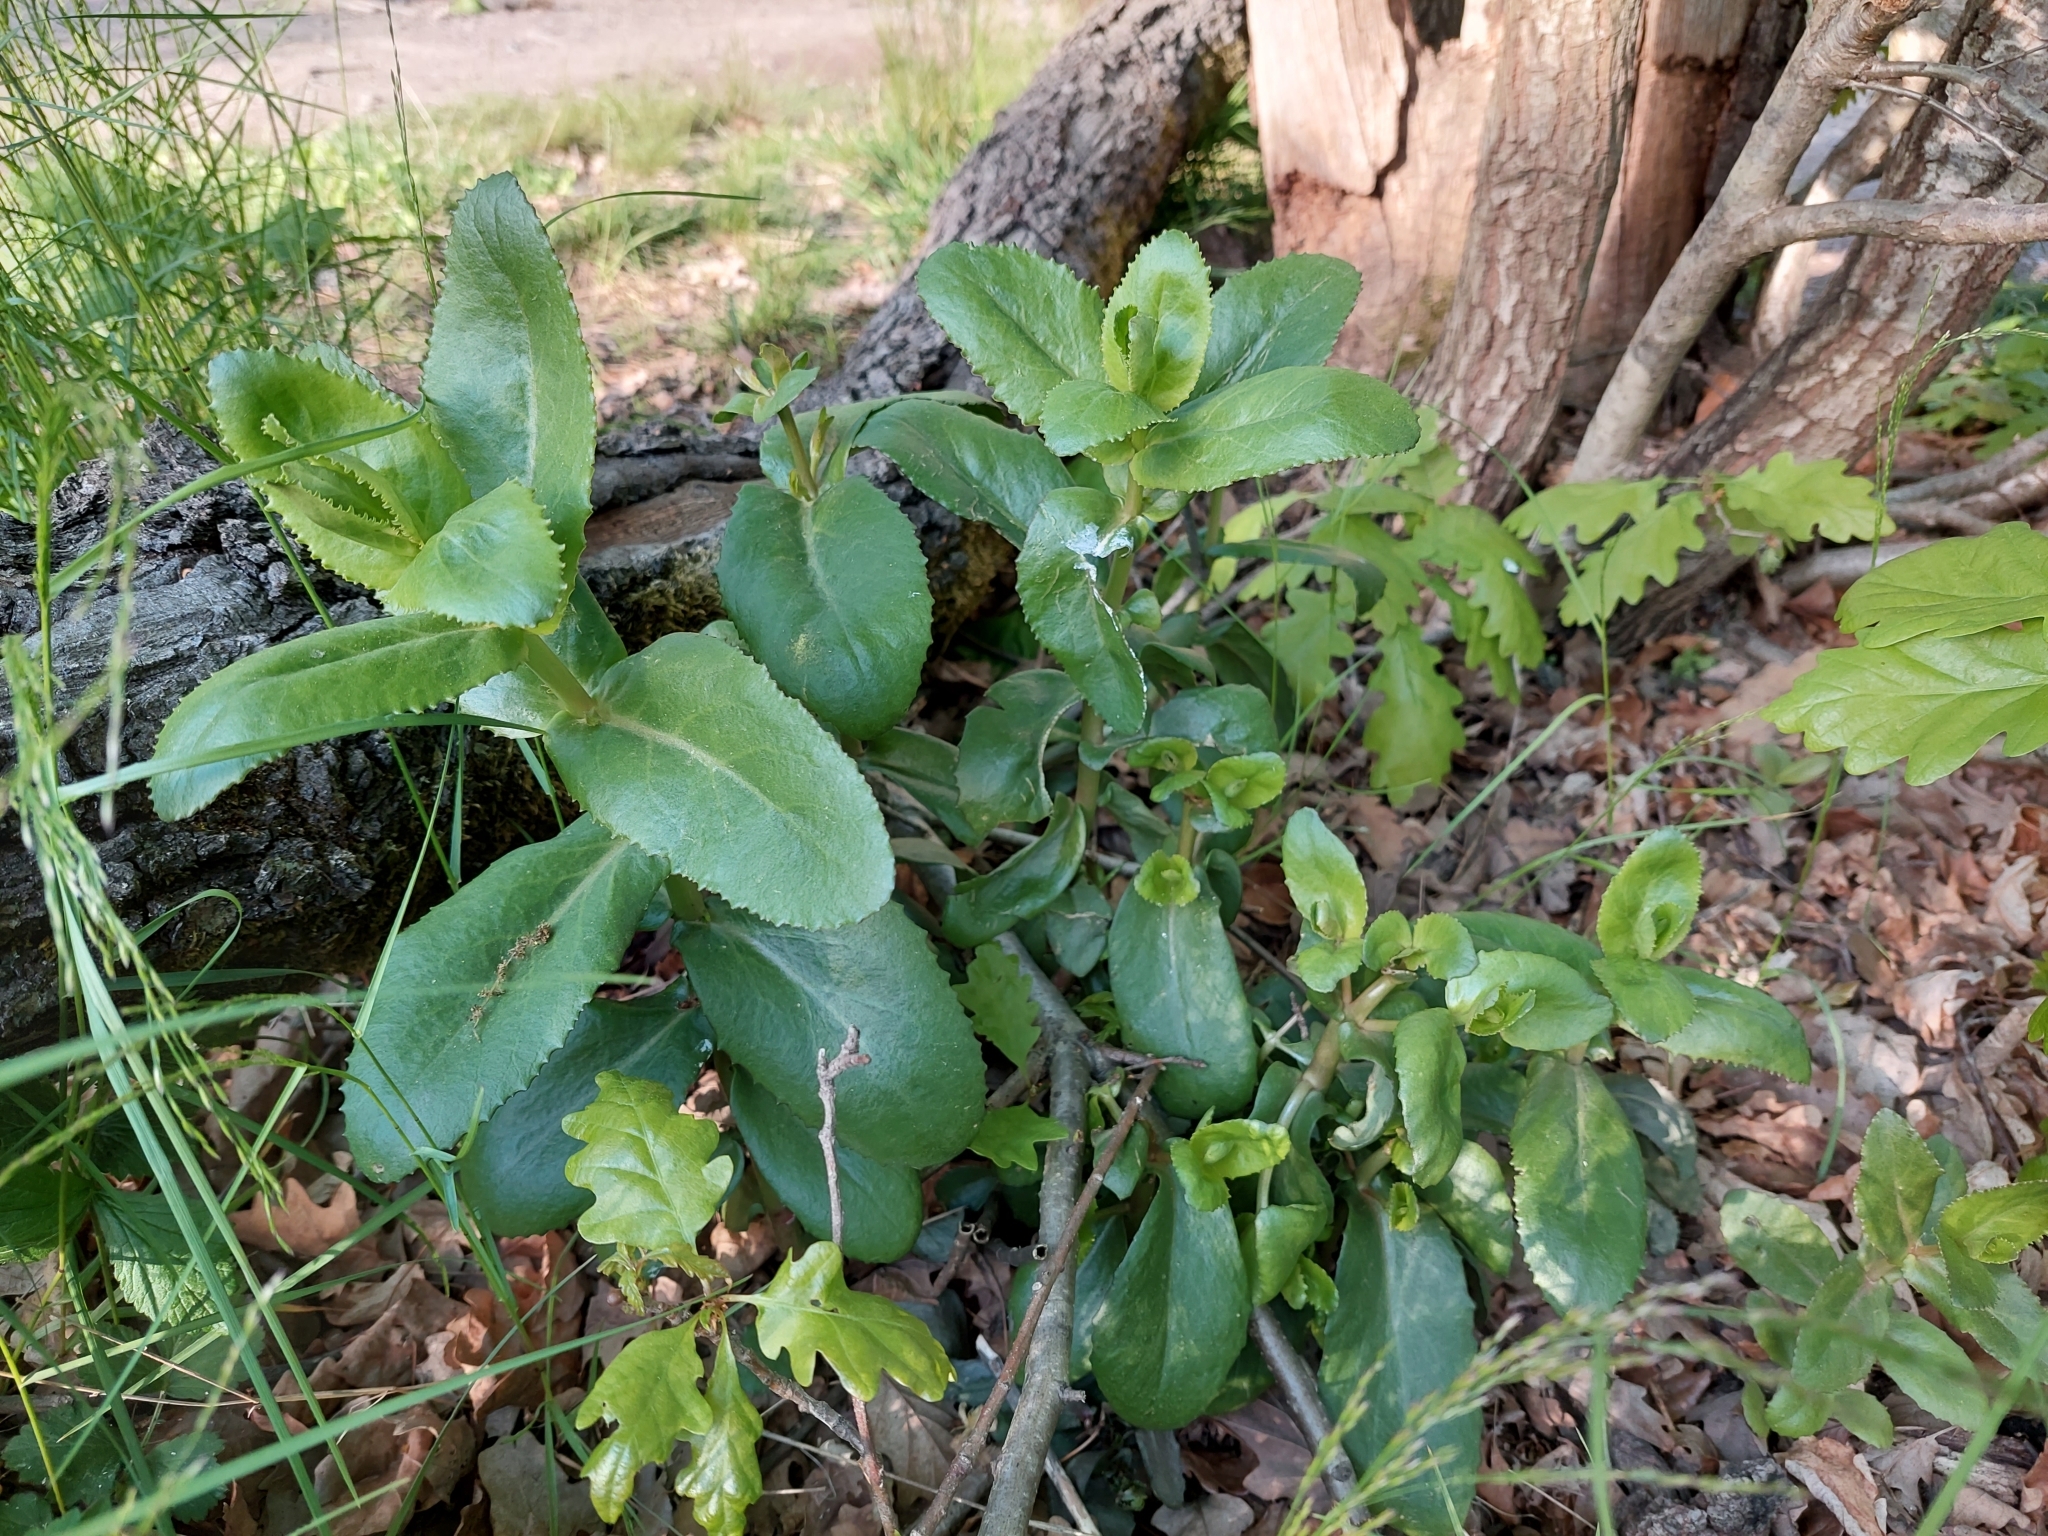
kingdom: Plantae
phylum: Tracheophyta
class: Magnoliopsida
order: Saxifragales
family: Crassulaceae
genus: Hylotelephium
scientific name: Hylotelephium maximum
